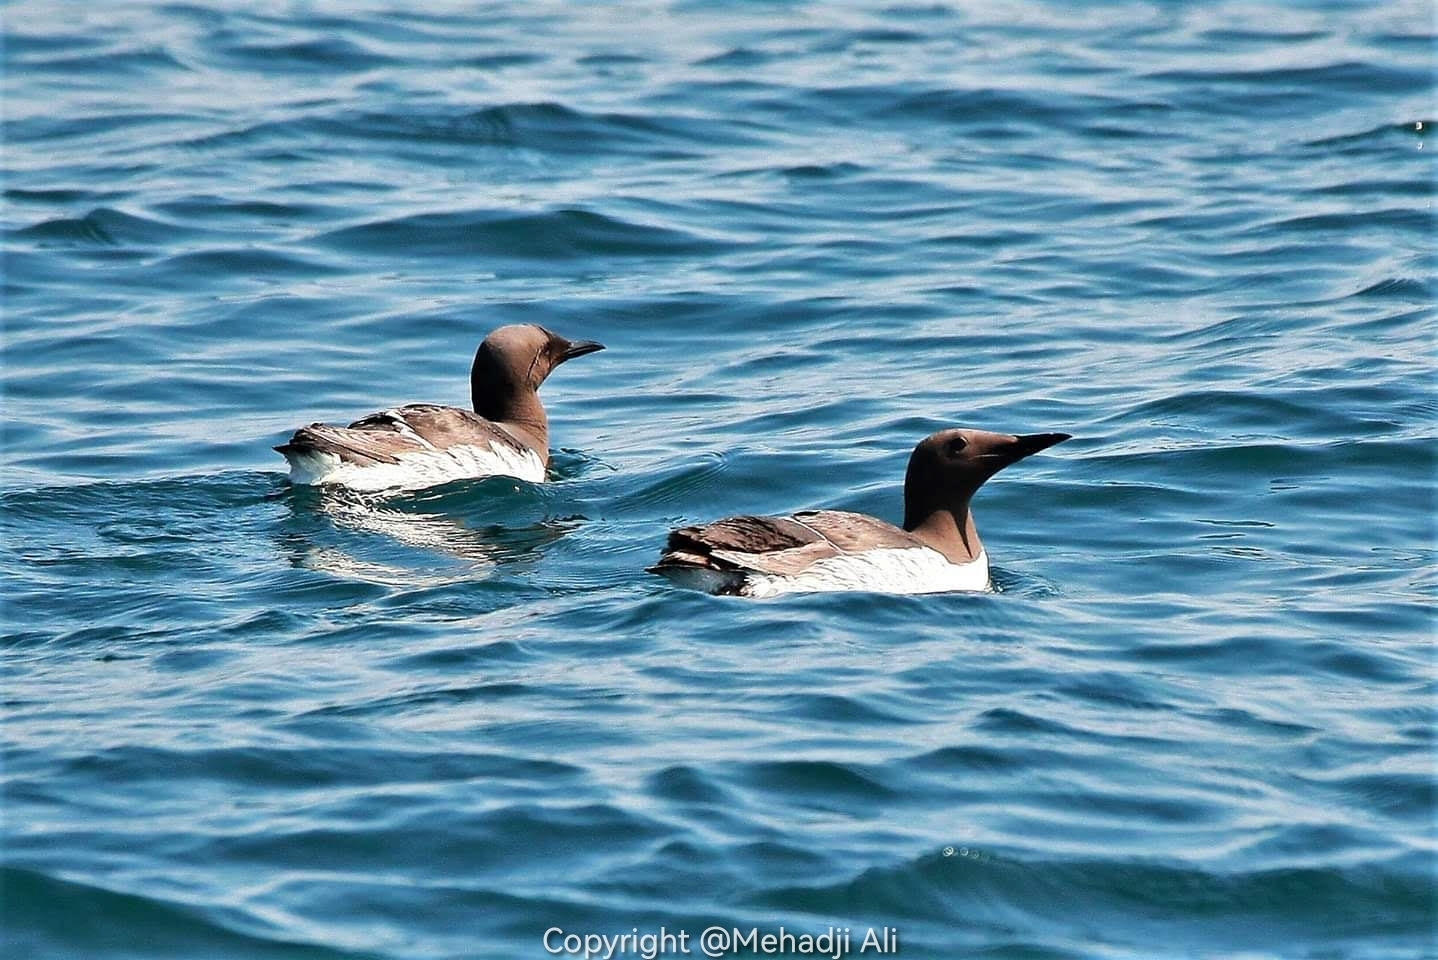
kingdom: Animalia
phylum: Chordata
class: Aves
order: Charadriiformes
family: Alcidae
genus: Uria
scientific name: Uria aalge
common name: Common murre
